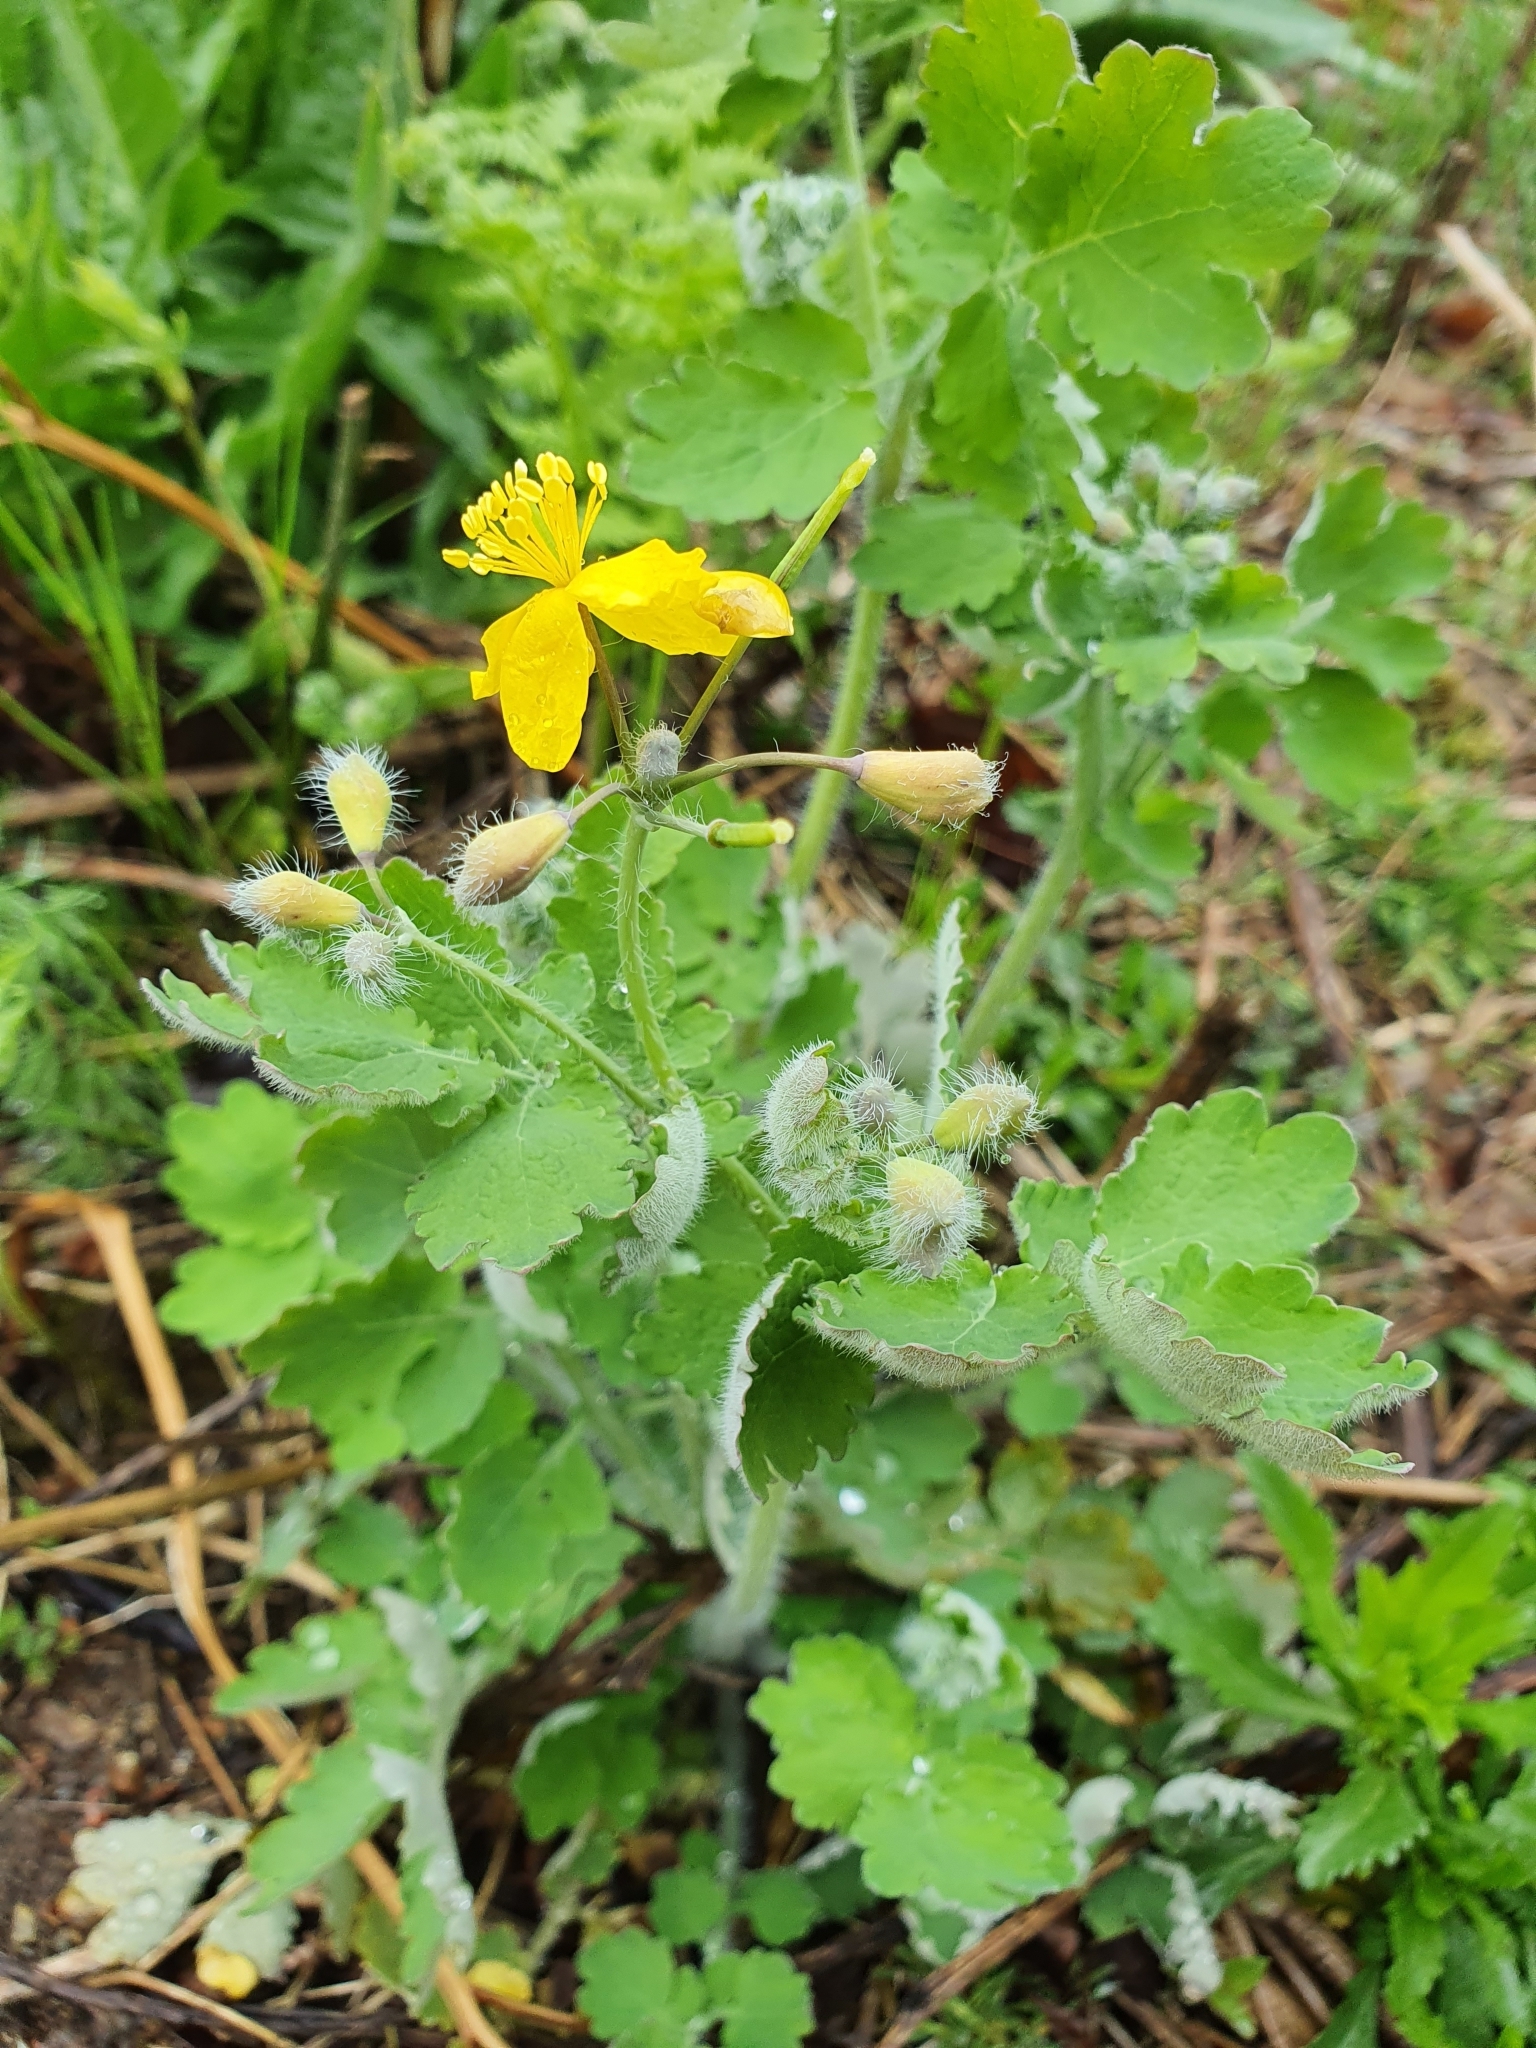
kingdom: Plantae
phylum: Tracheophyta
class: Magnoliopsida
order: Ranunculales
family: Papaveraceae
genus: Chelidonium
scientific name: Chelidonium majus
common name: Greater celandine
